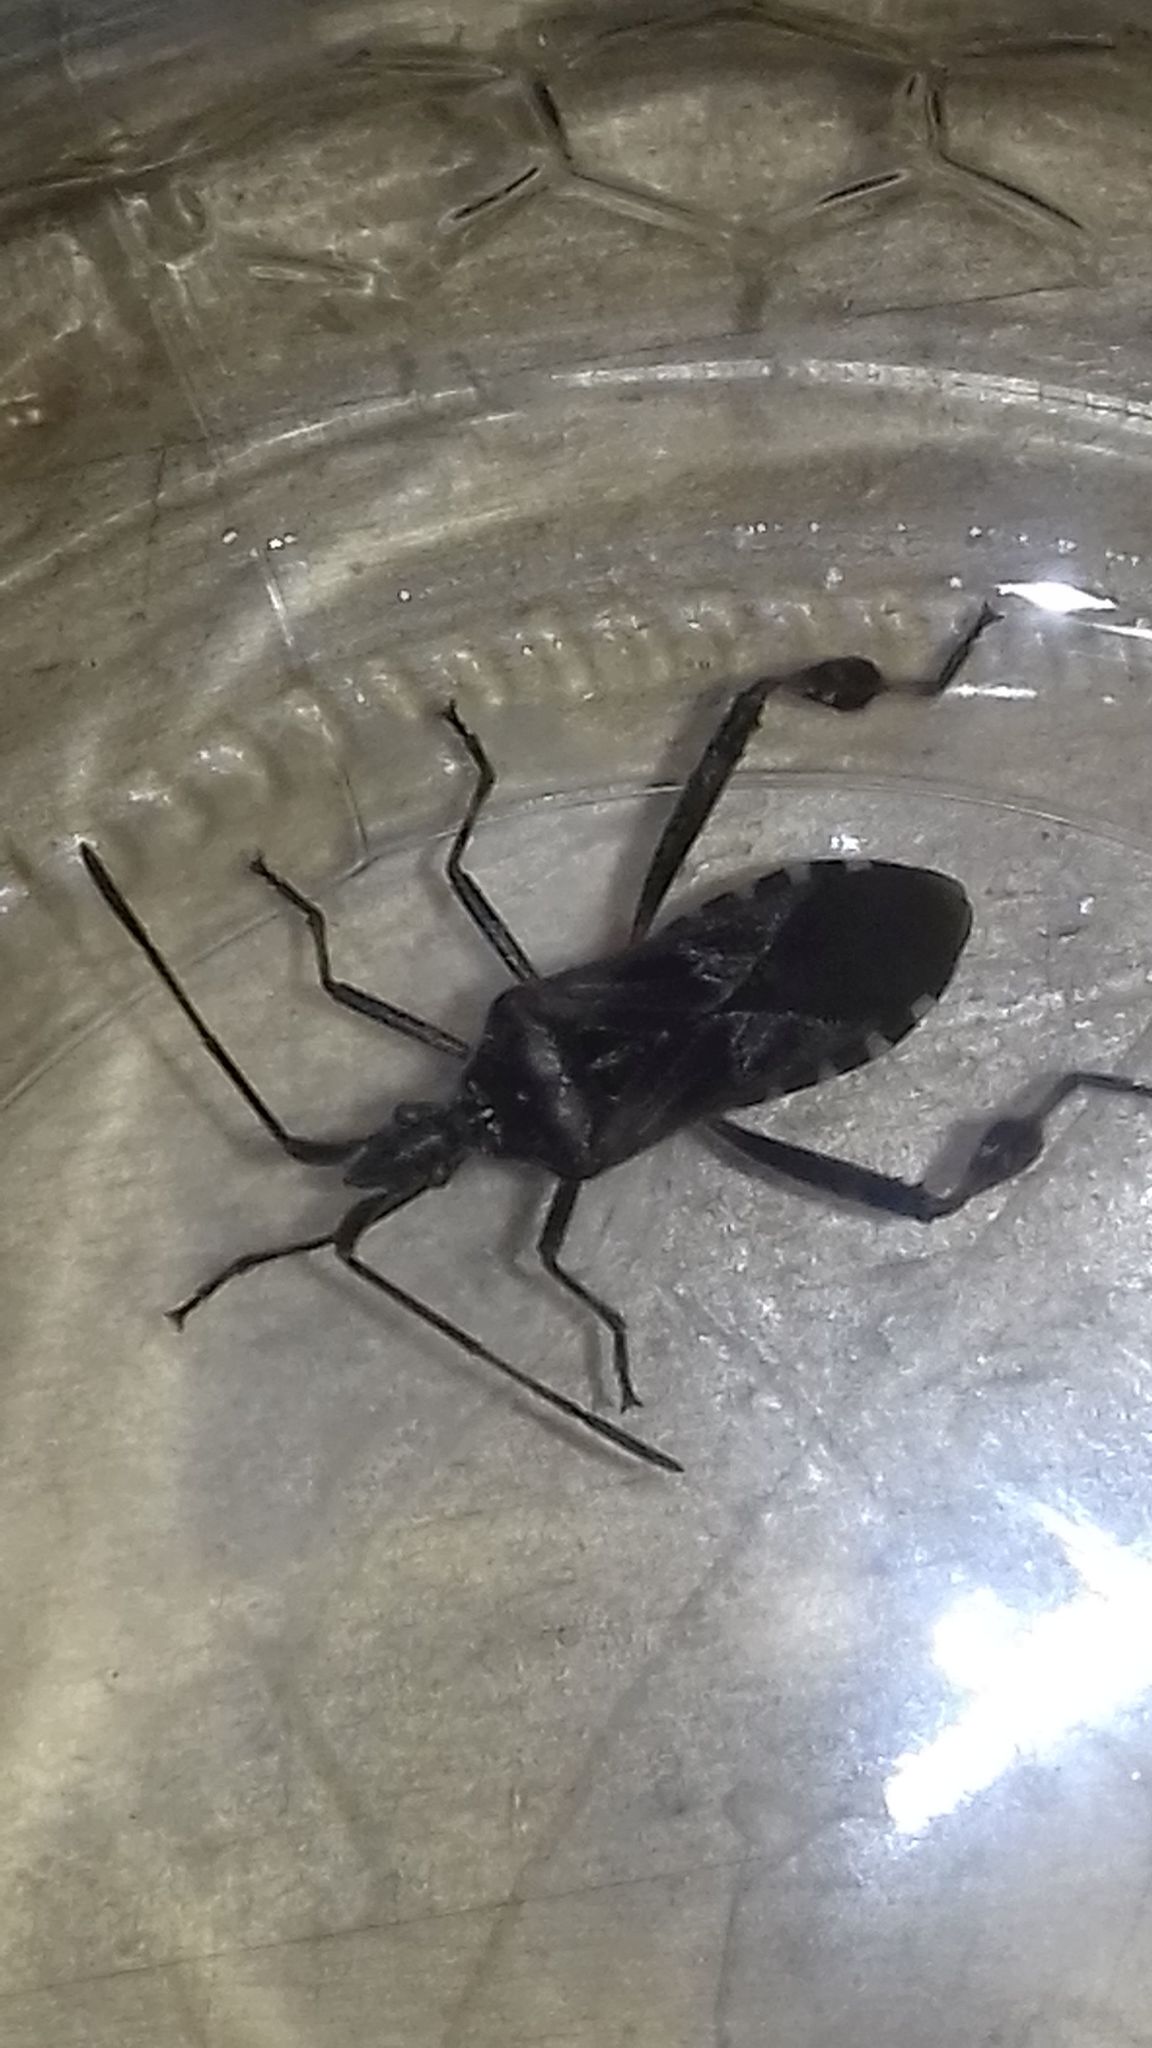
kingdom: Animalia
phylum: Arthropoda
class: Insecta
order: Hemiptera
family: Coreidae
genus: Leptoglossus
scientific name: Leptoglossus occidentalis
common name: Western conifer-seed bug
